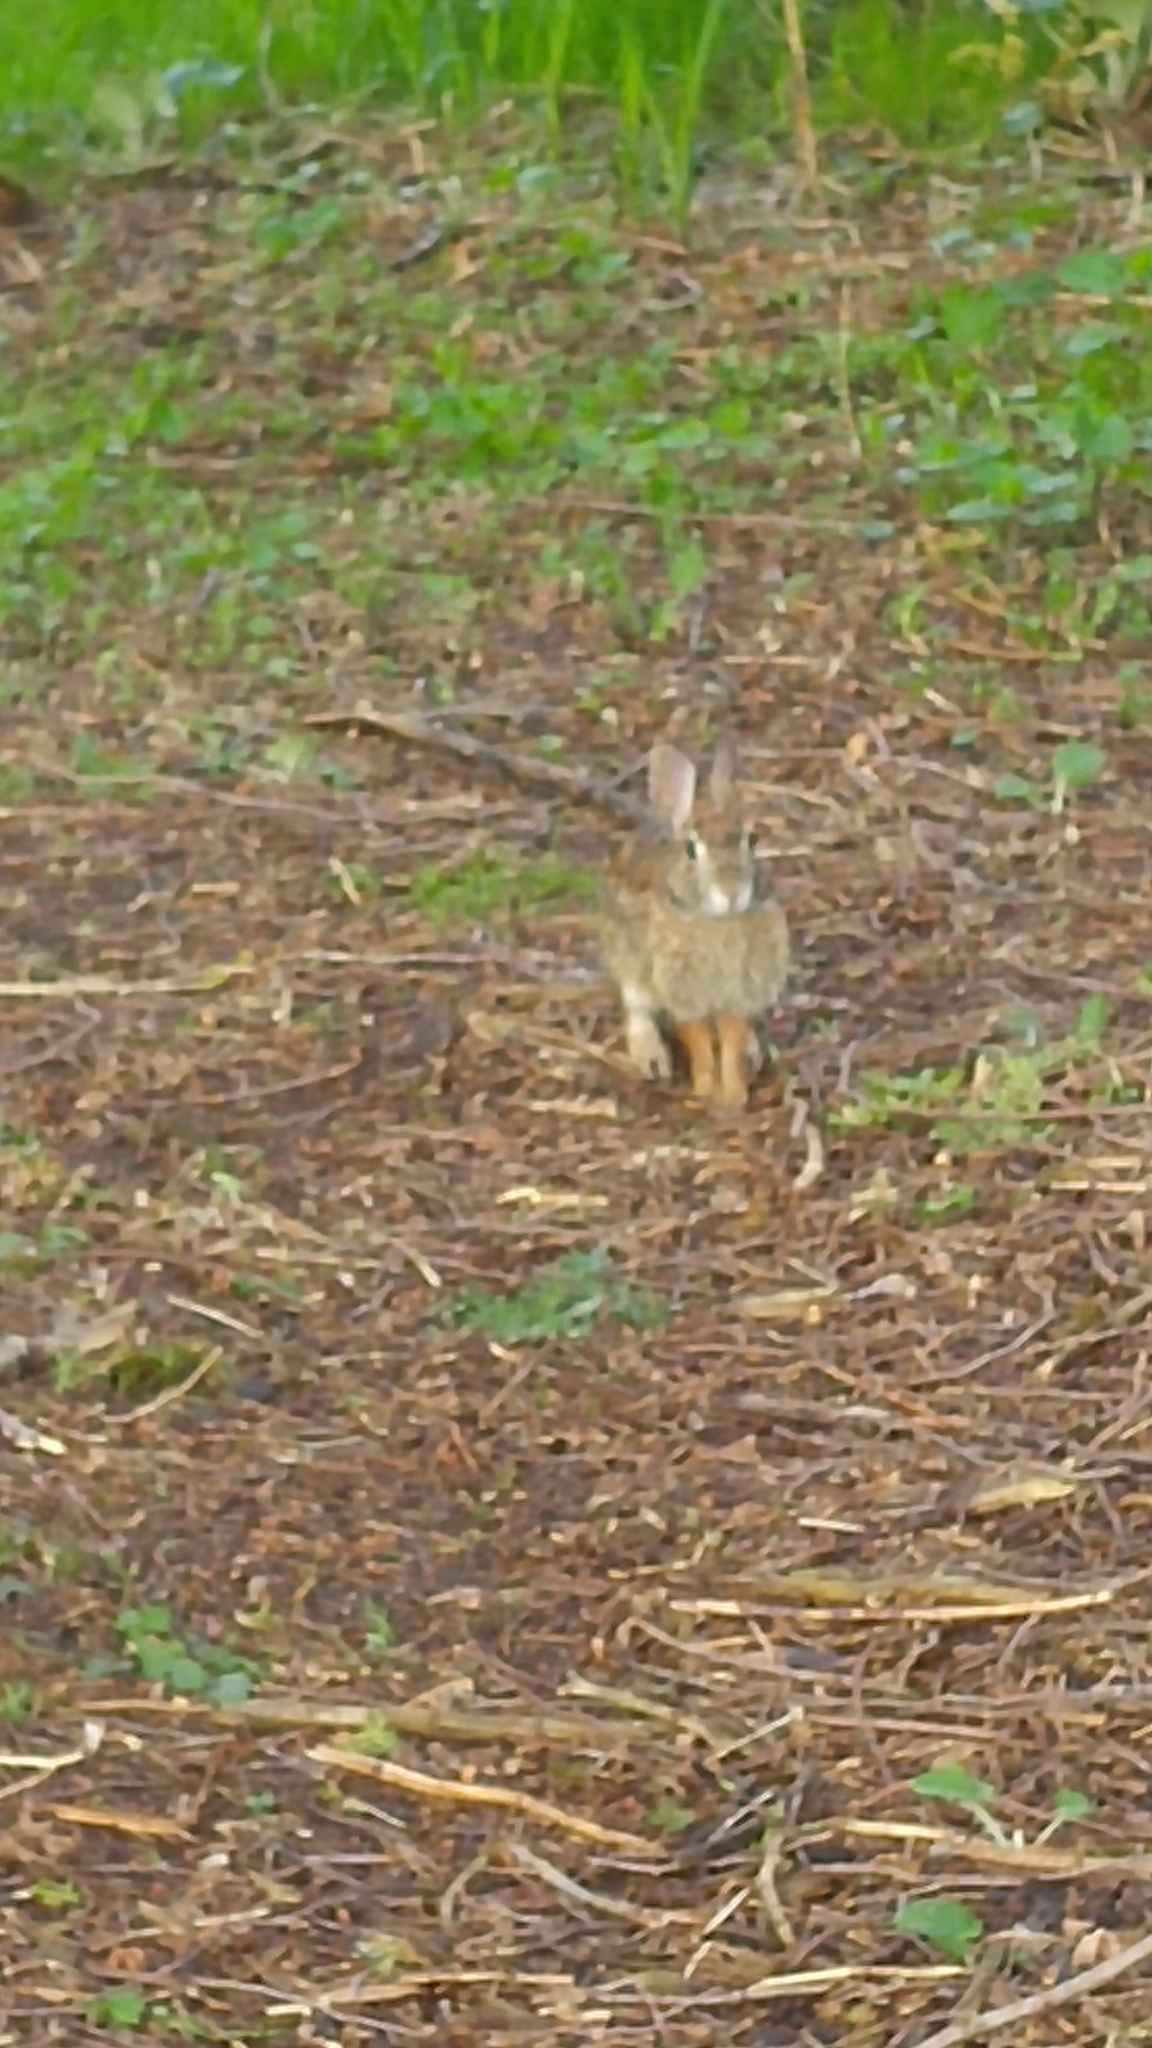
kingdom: Animalia
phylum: Chordata
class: Mammalia
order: Lagomorpha
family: Leporidae
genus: Sylvilagus
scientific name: Sylvilagus floridanus
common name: Eastern cottontail
